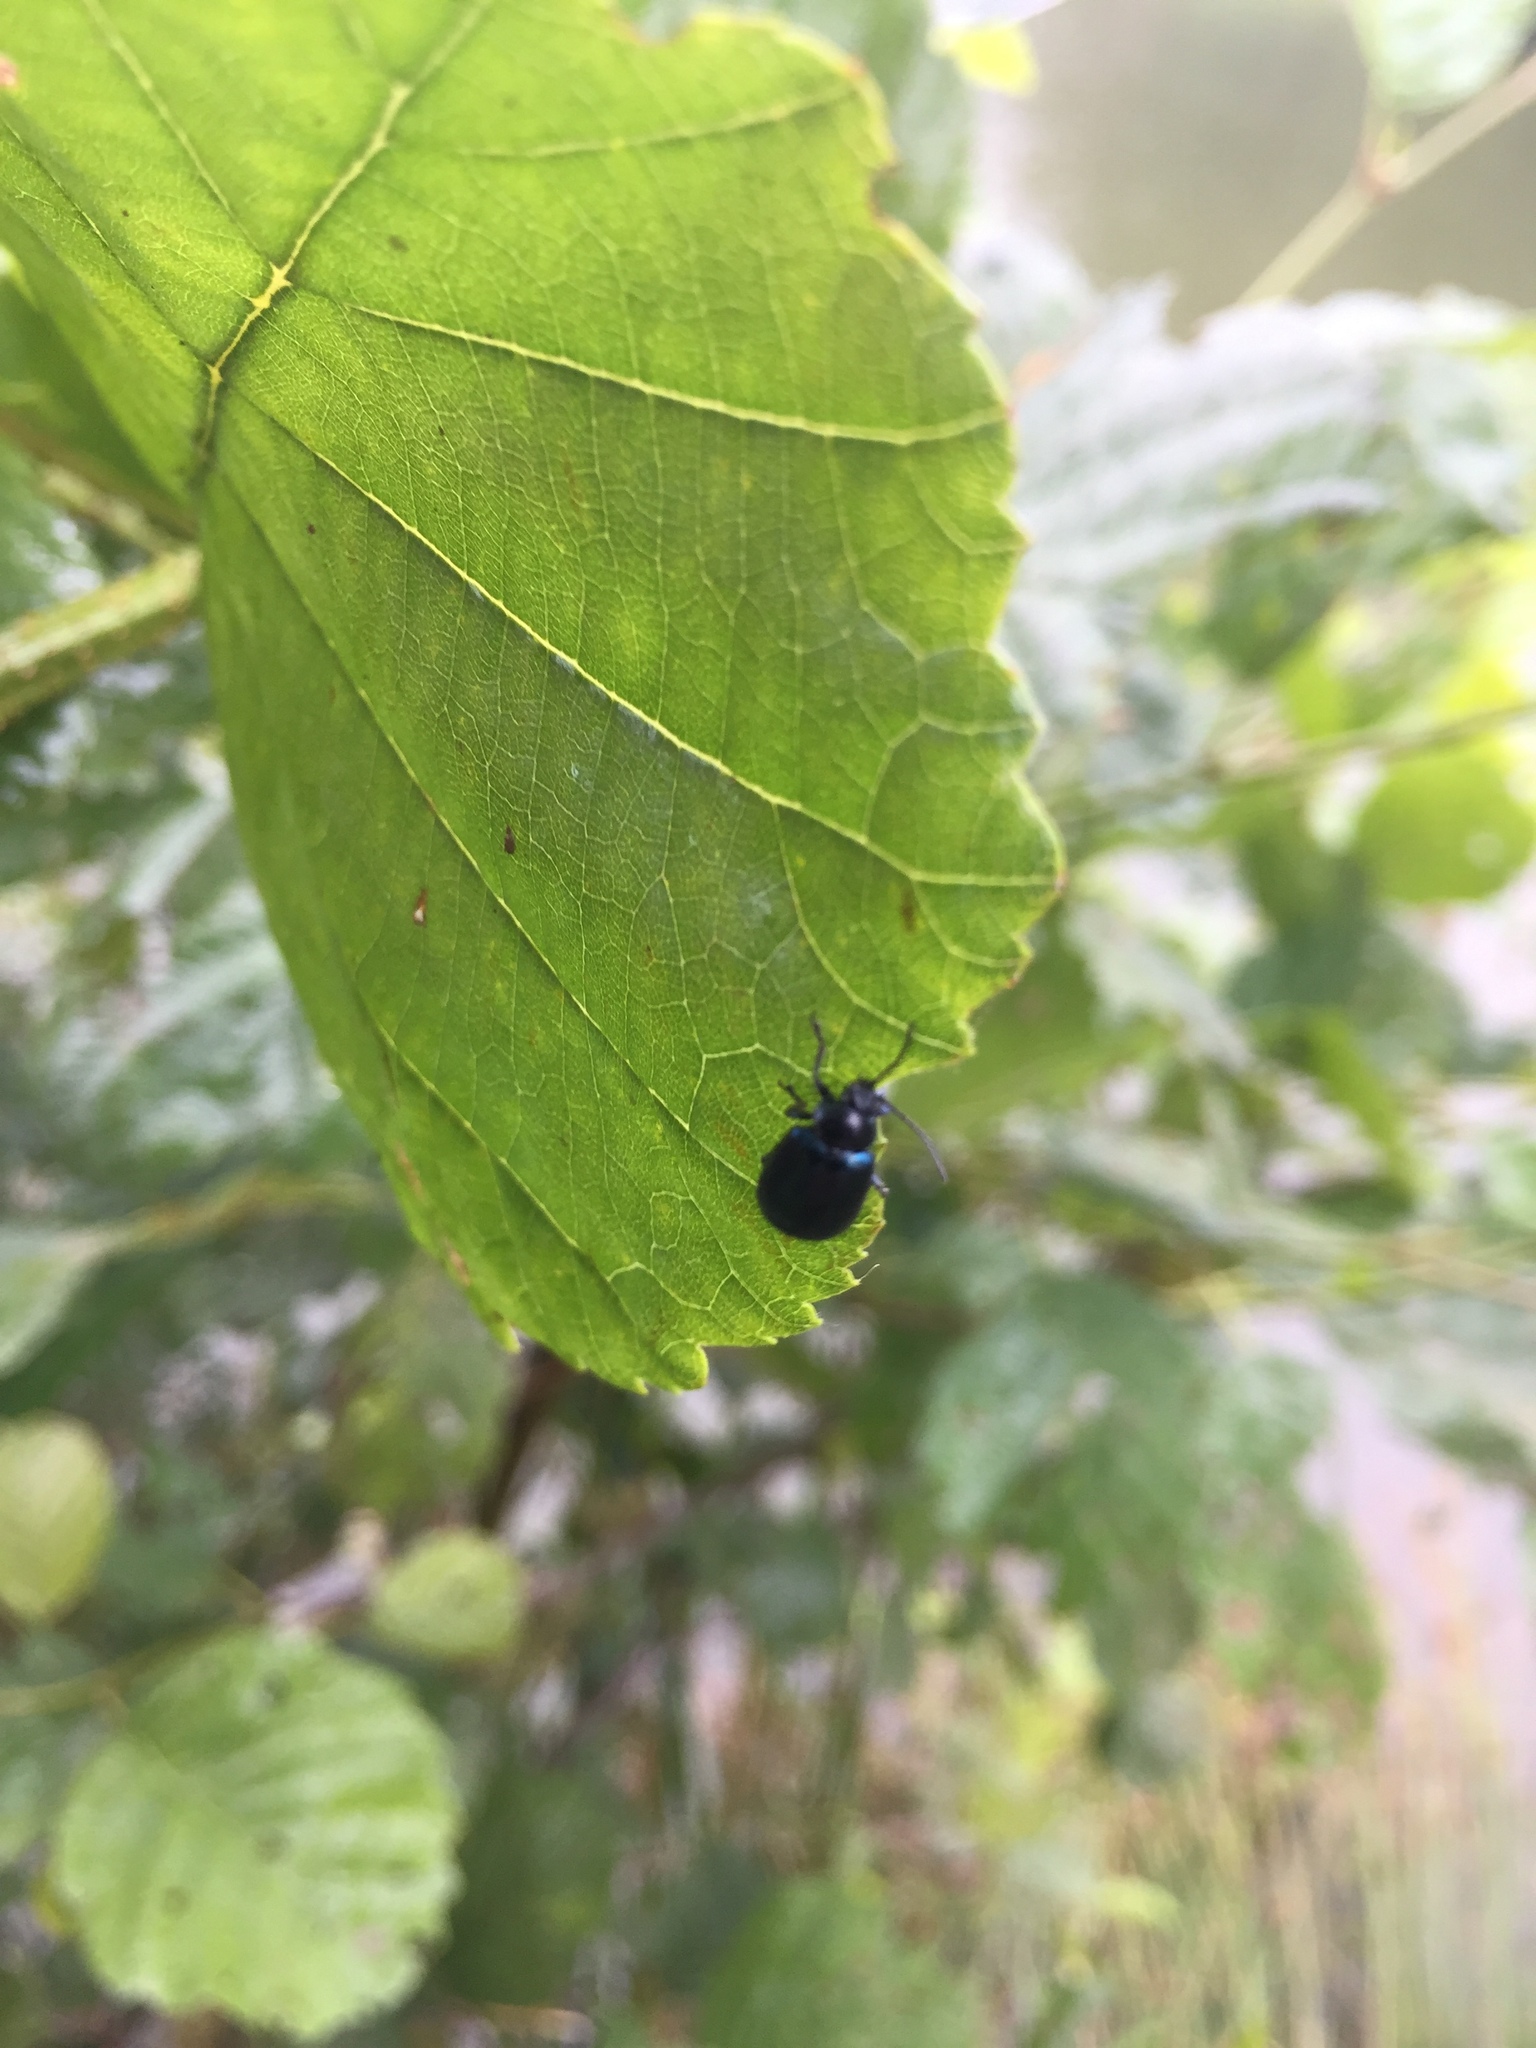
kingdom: Animalia
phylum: Arthropoda
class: Insecta
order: Coleoptera
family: Chrysomelidae
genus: Agelastica
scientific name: Agelastica alni
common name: Alder leaf beetle
